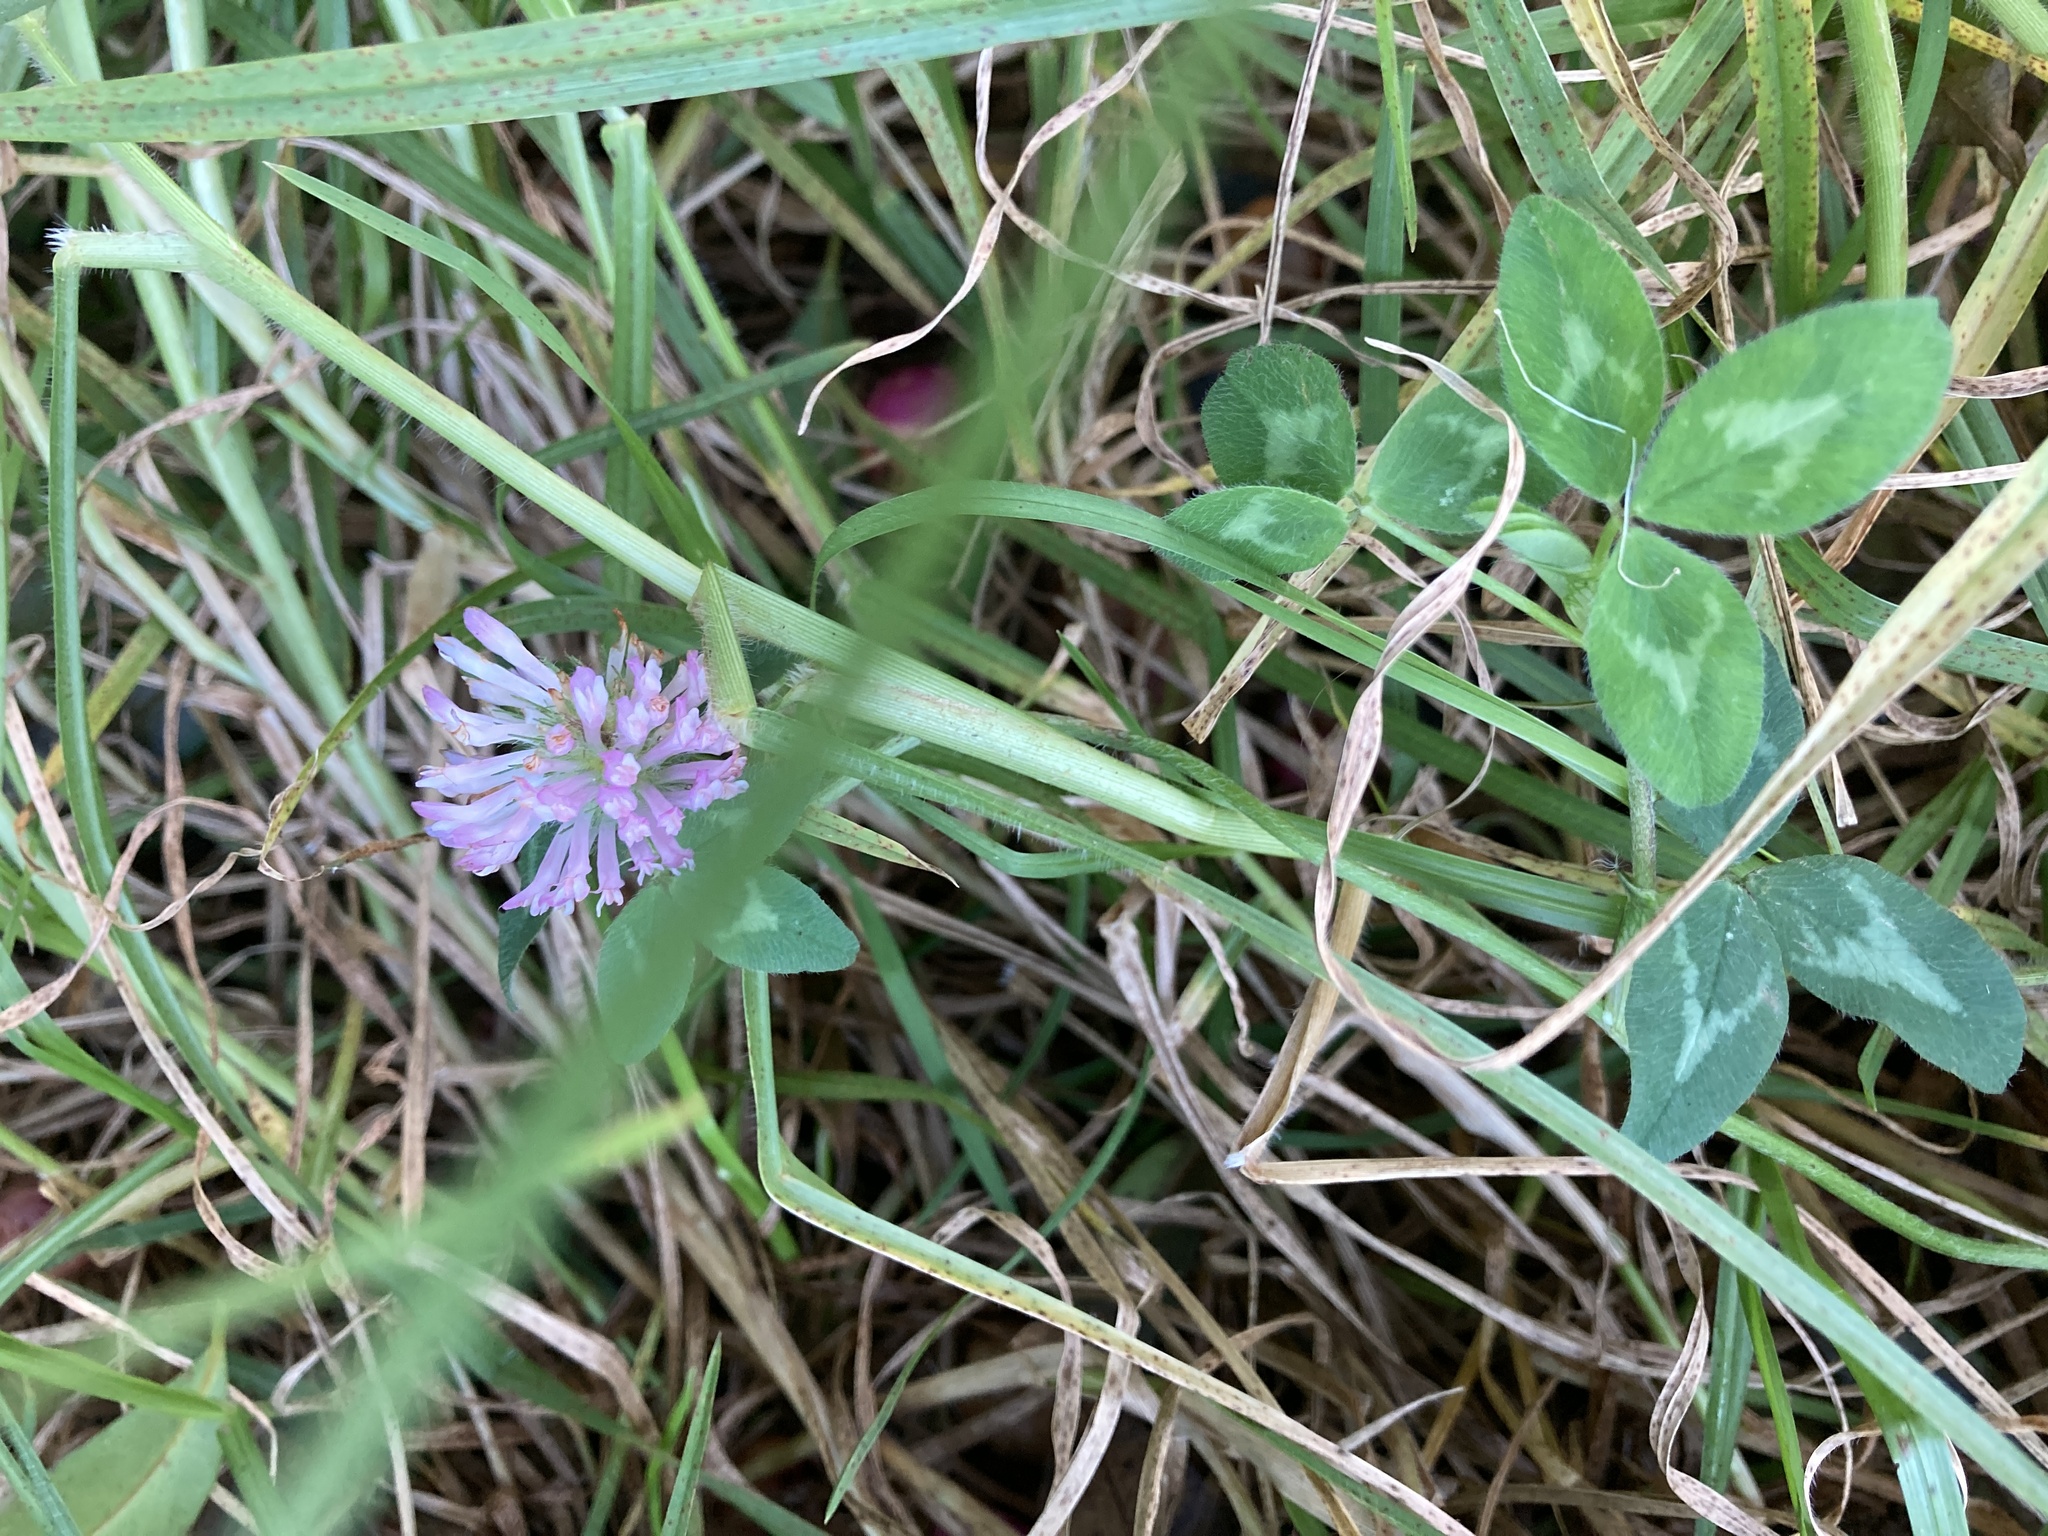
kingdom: Plantae
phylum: Tracheophyta
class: Magnoliopsida
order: Fabales
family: Fabaceae
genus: Trifolium
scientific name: Trifolium pratense
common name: Red clover
